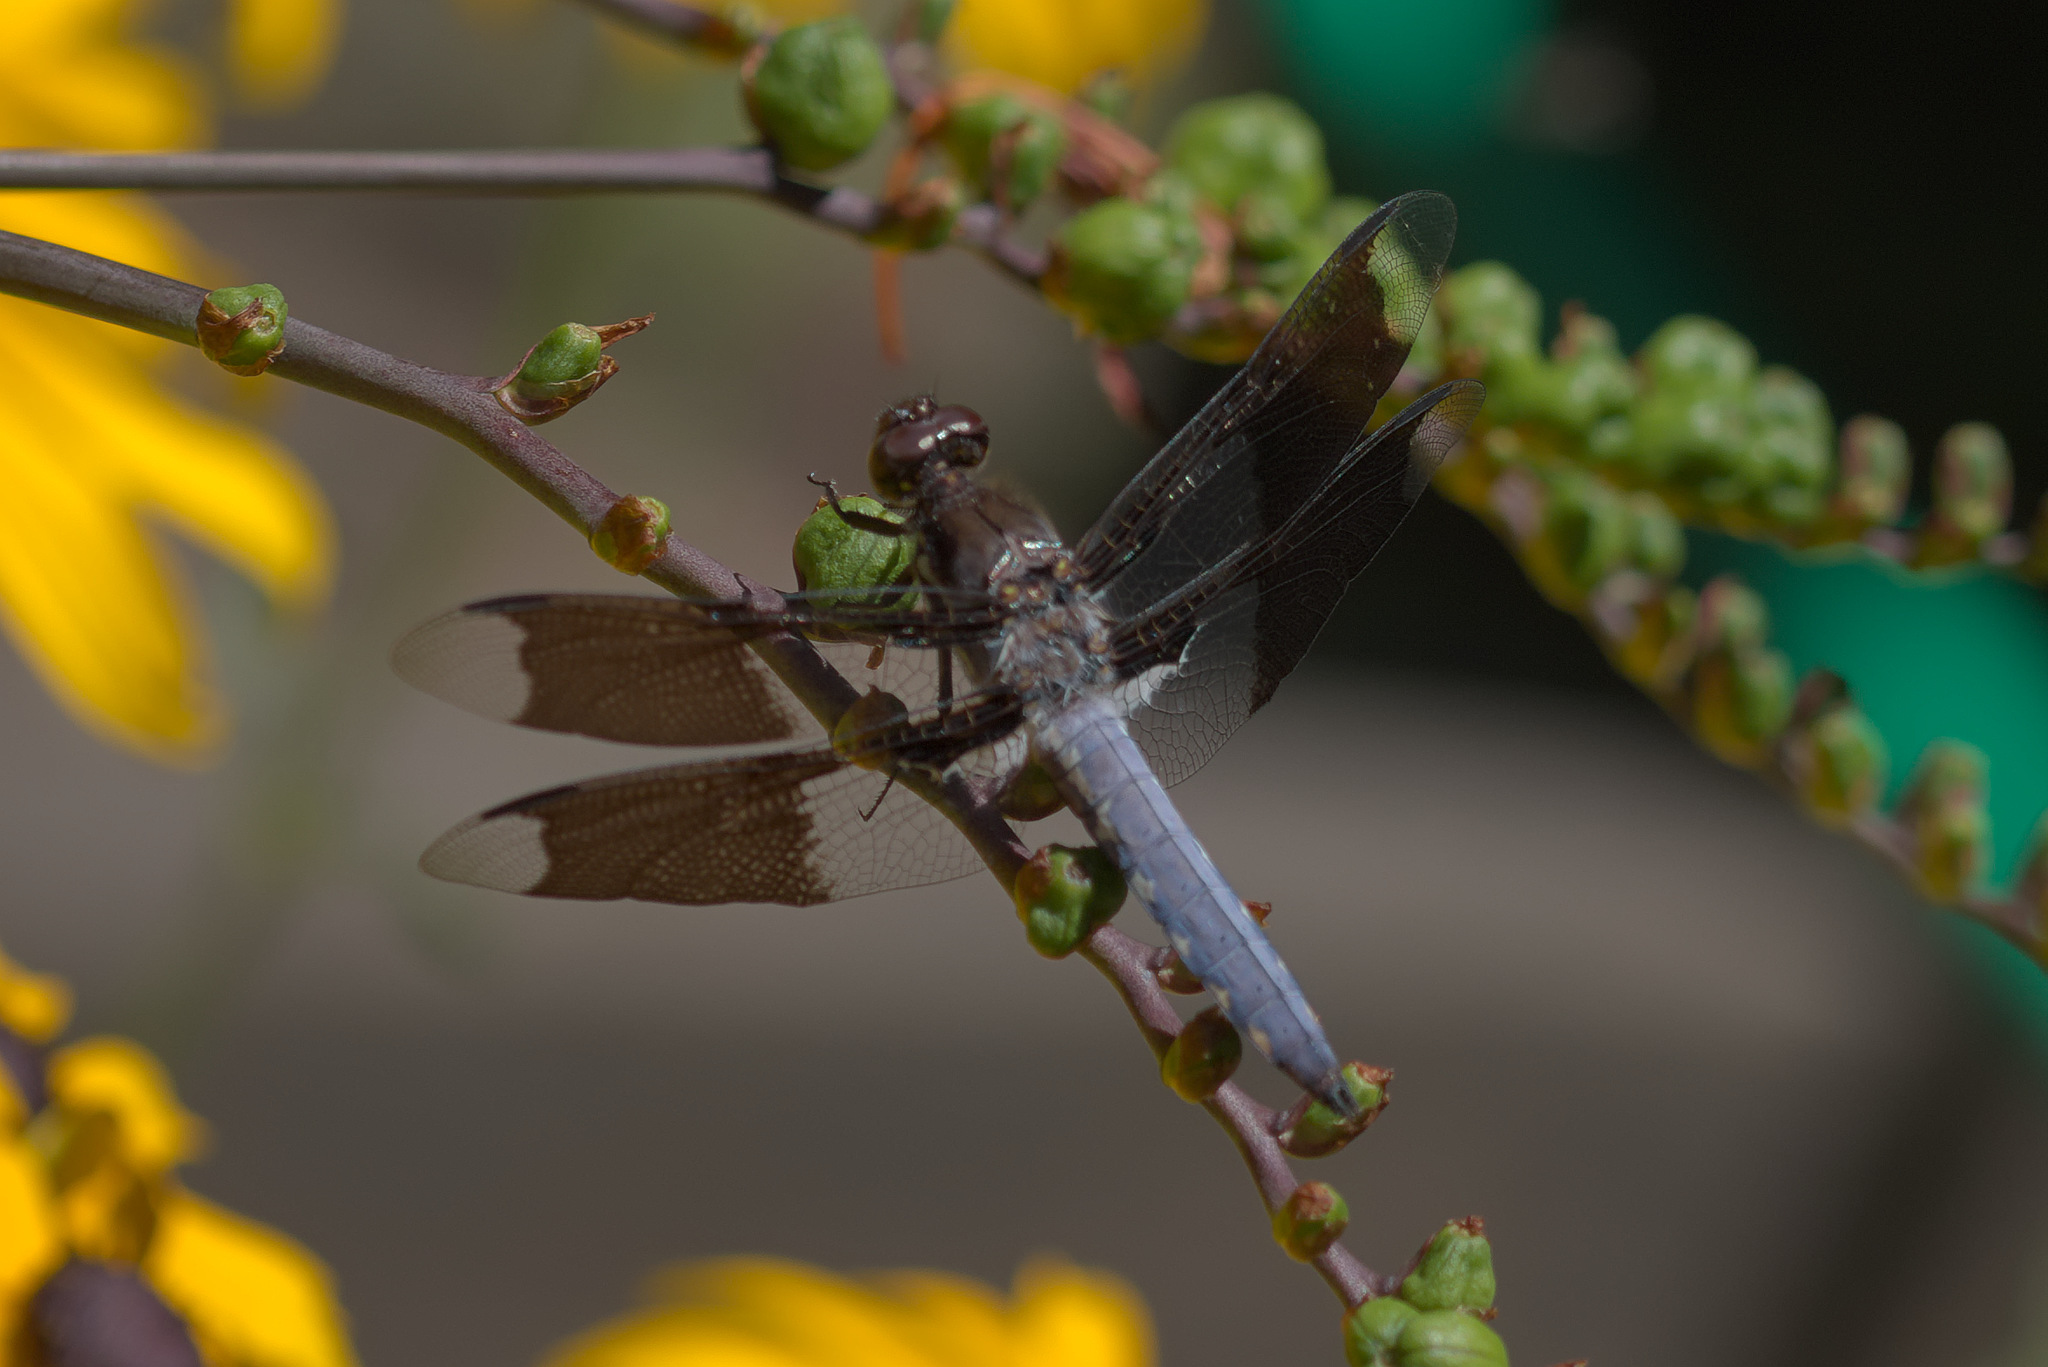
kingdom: Animalia
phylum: Arthropoda
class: Insecta
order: Odonata
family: Libellulidae
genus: Plathemis
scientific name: Plathemis lydia
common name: Common whitetail
